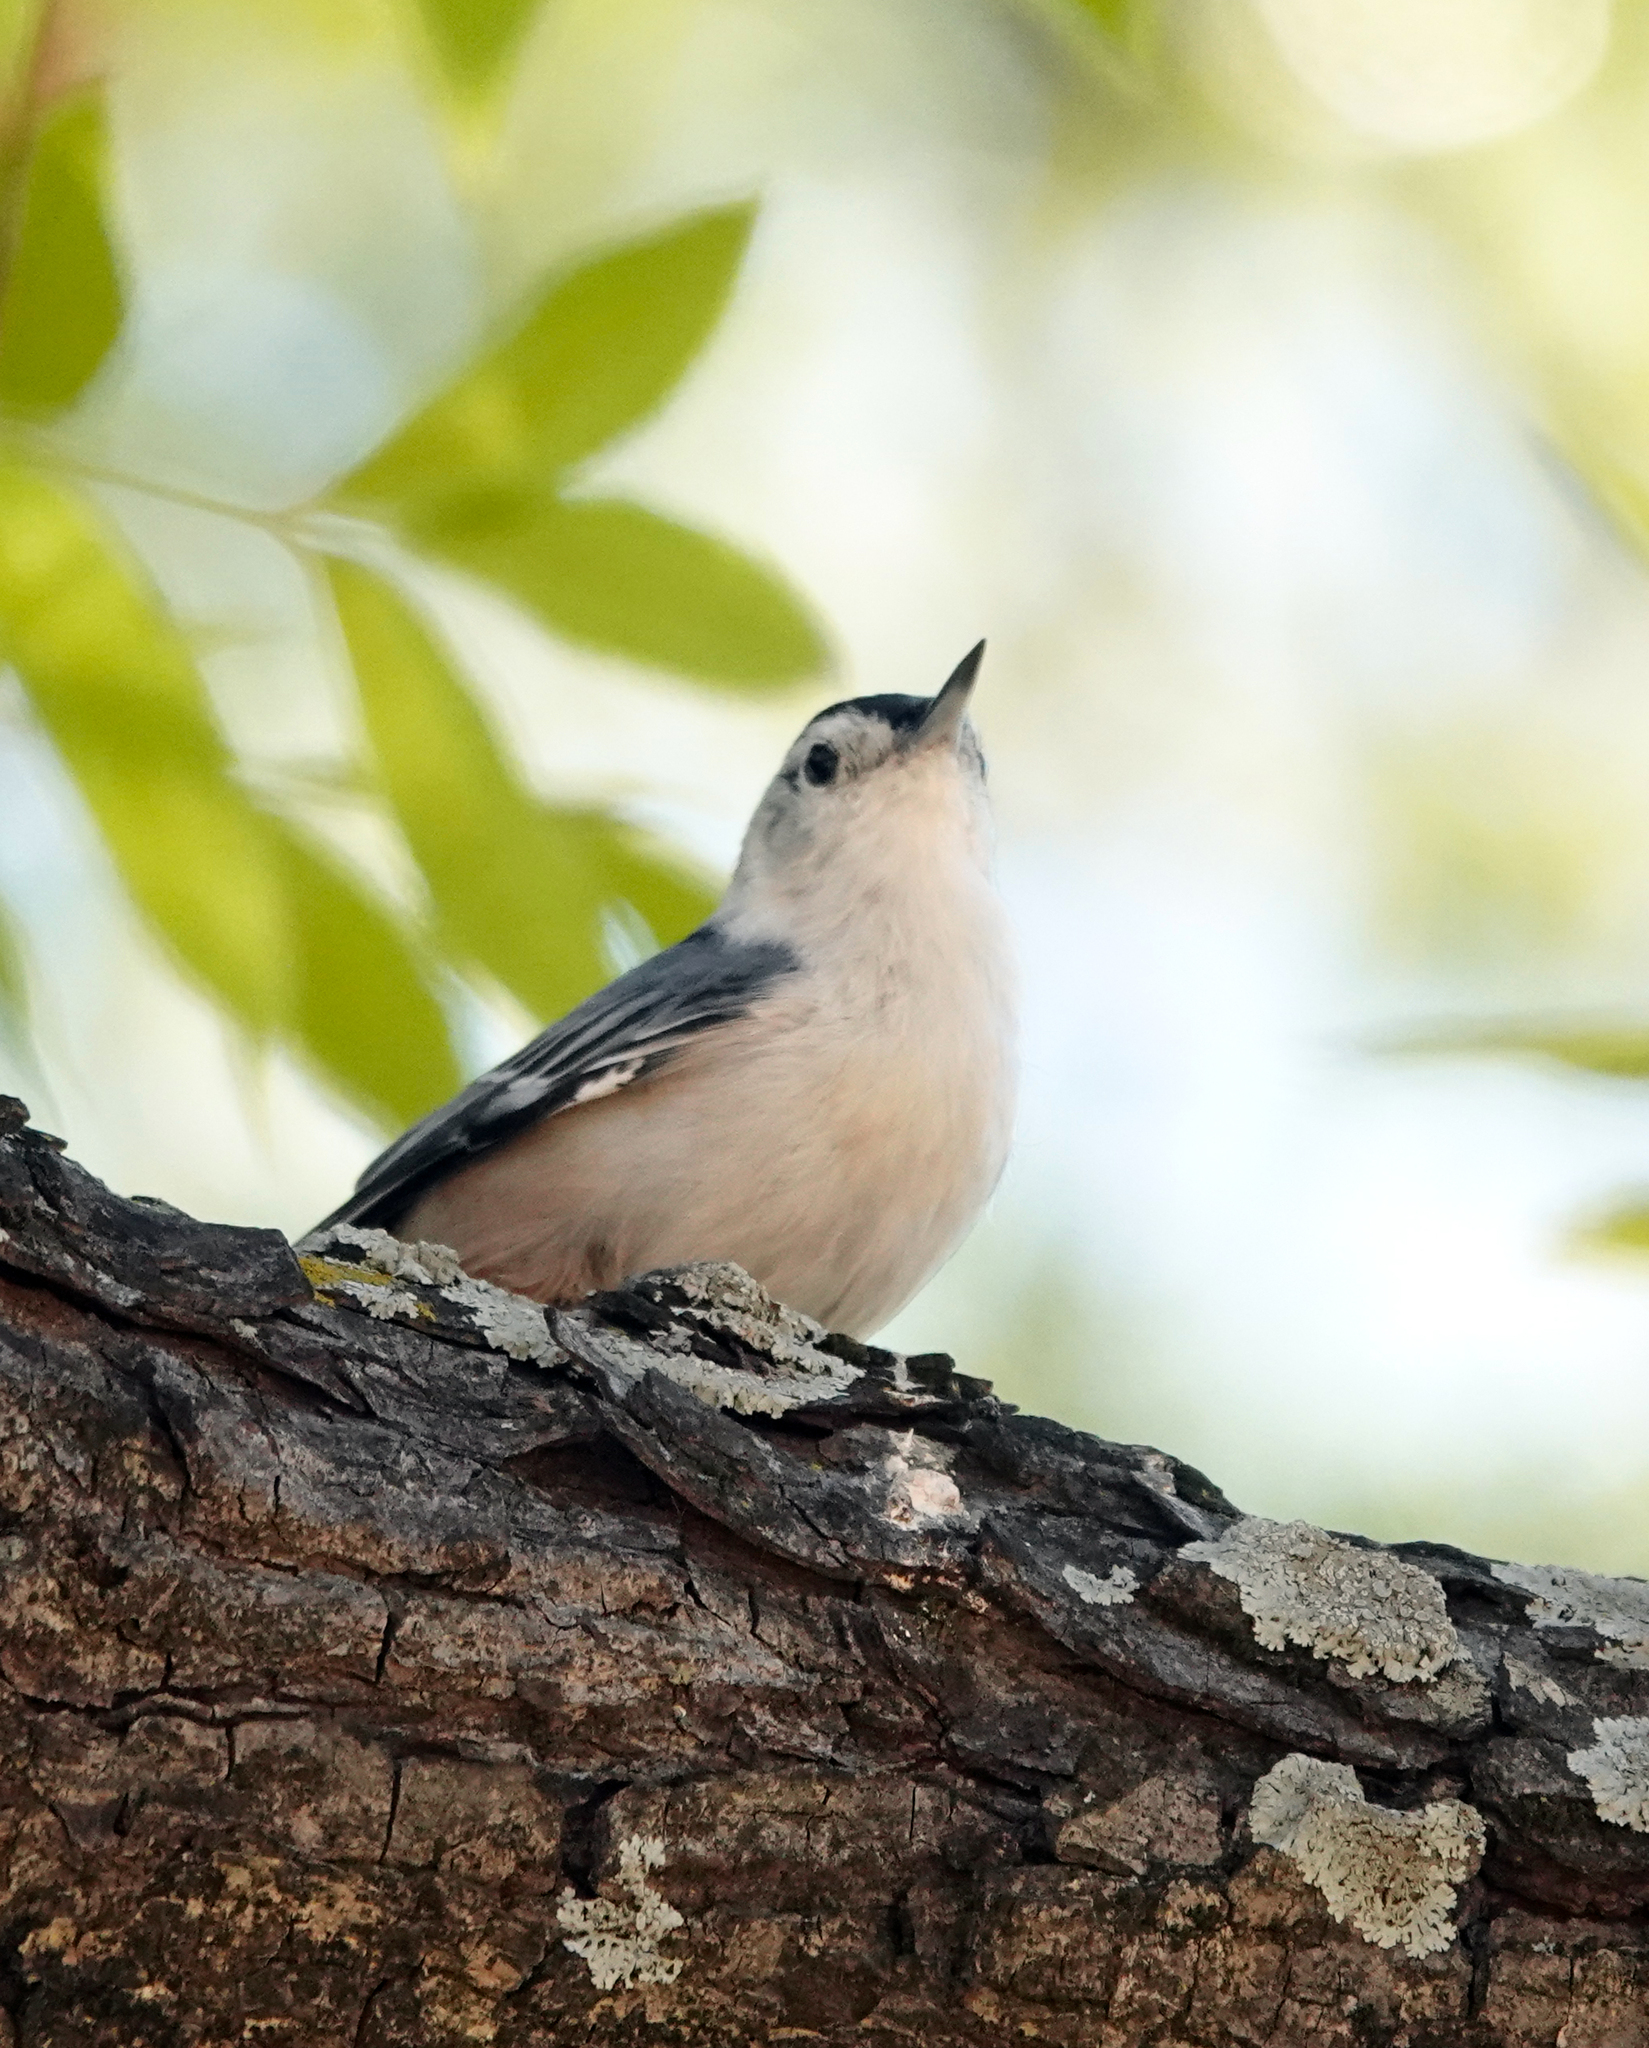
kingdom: Animalia
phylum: Chordata
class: Aves
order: Passeriformes
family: Sittidae
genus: Sitta
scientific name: Sitta carolinensis
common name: White-breasted nuthatch
